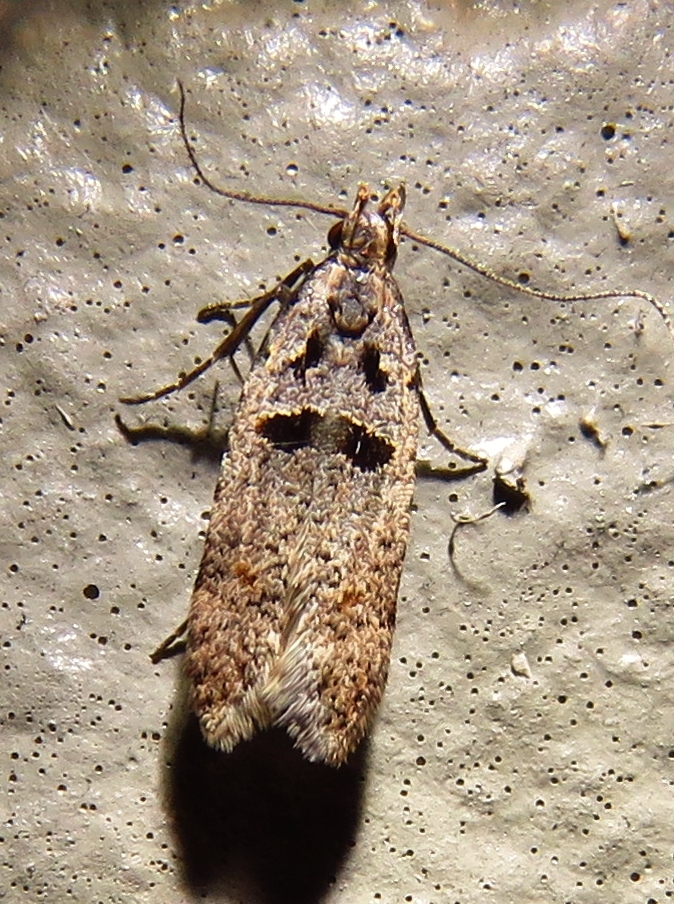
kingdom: Animalia
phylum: Arthropoda
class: Insecta
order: Lepidoptera
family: Gelechiidae
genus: Deltophora
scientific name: Deltophora glandiferella
